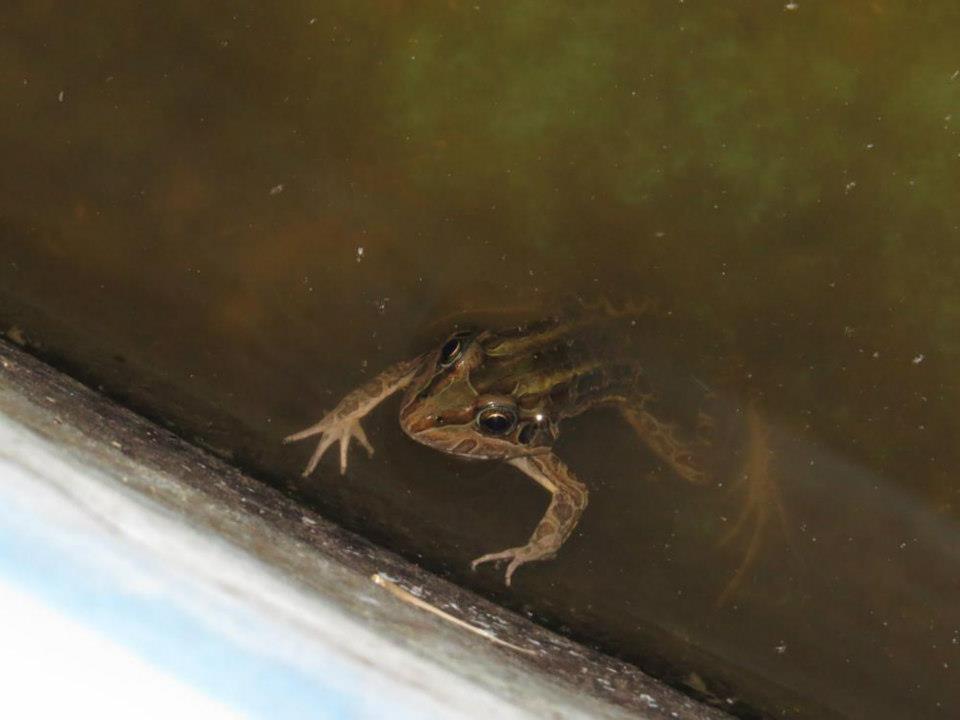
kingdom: Animalia
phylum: Chordata
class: Amphibia
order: Anura
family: Leptodactylidae
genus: Leptodactylus
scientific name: Leptodactylus luctator
